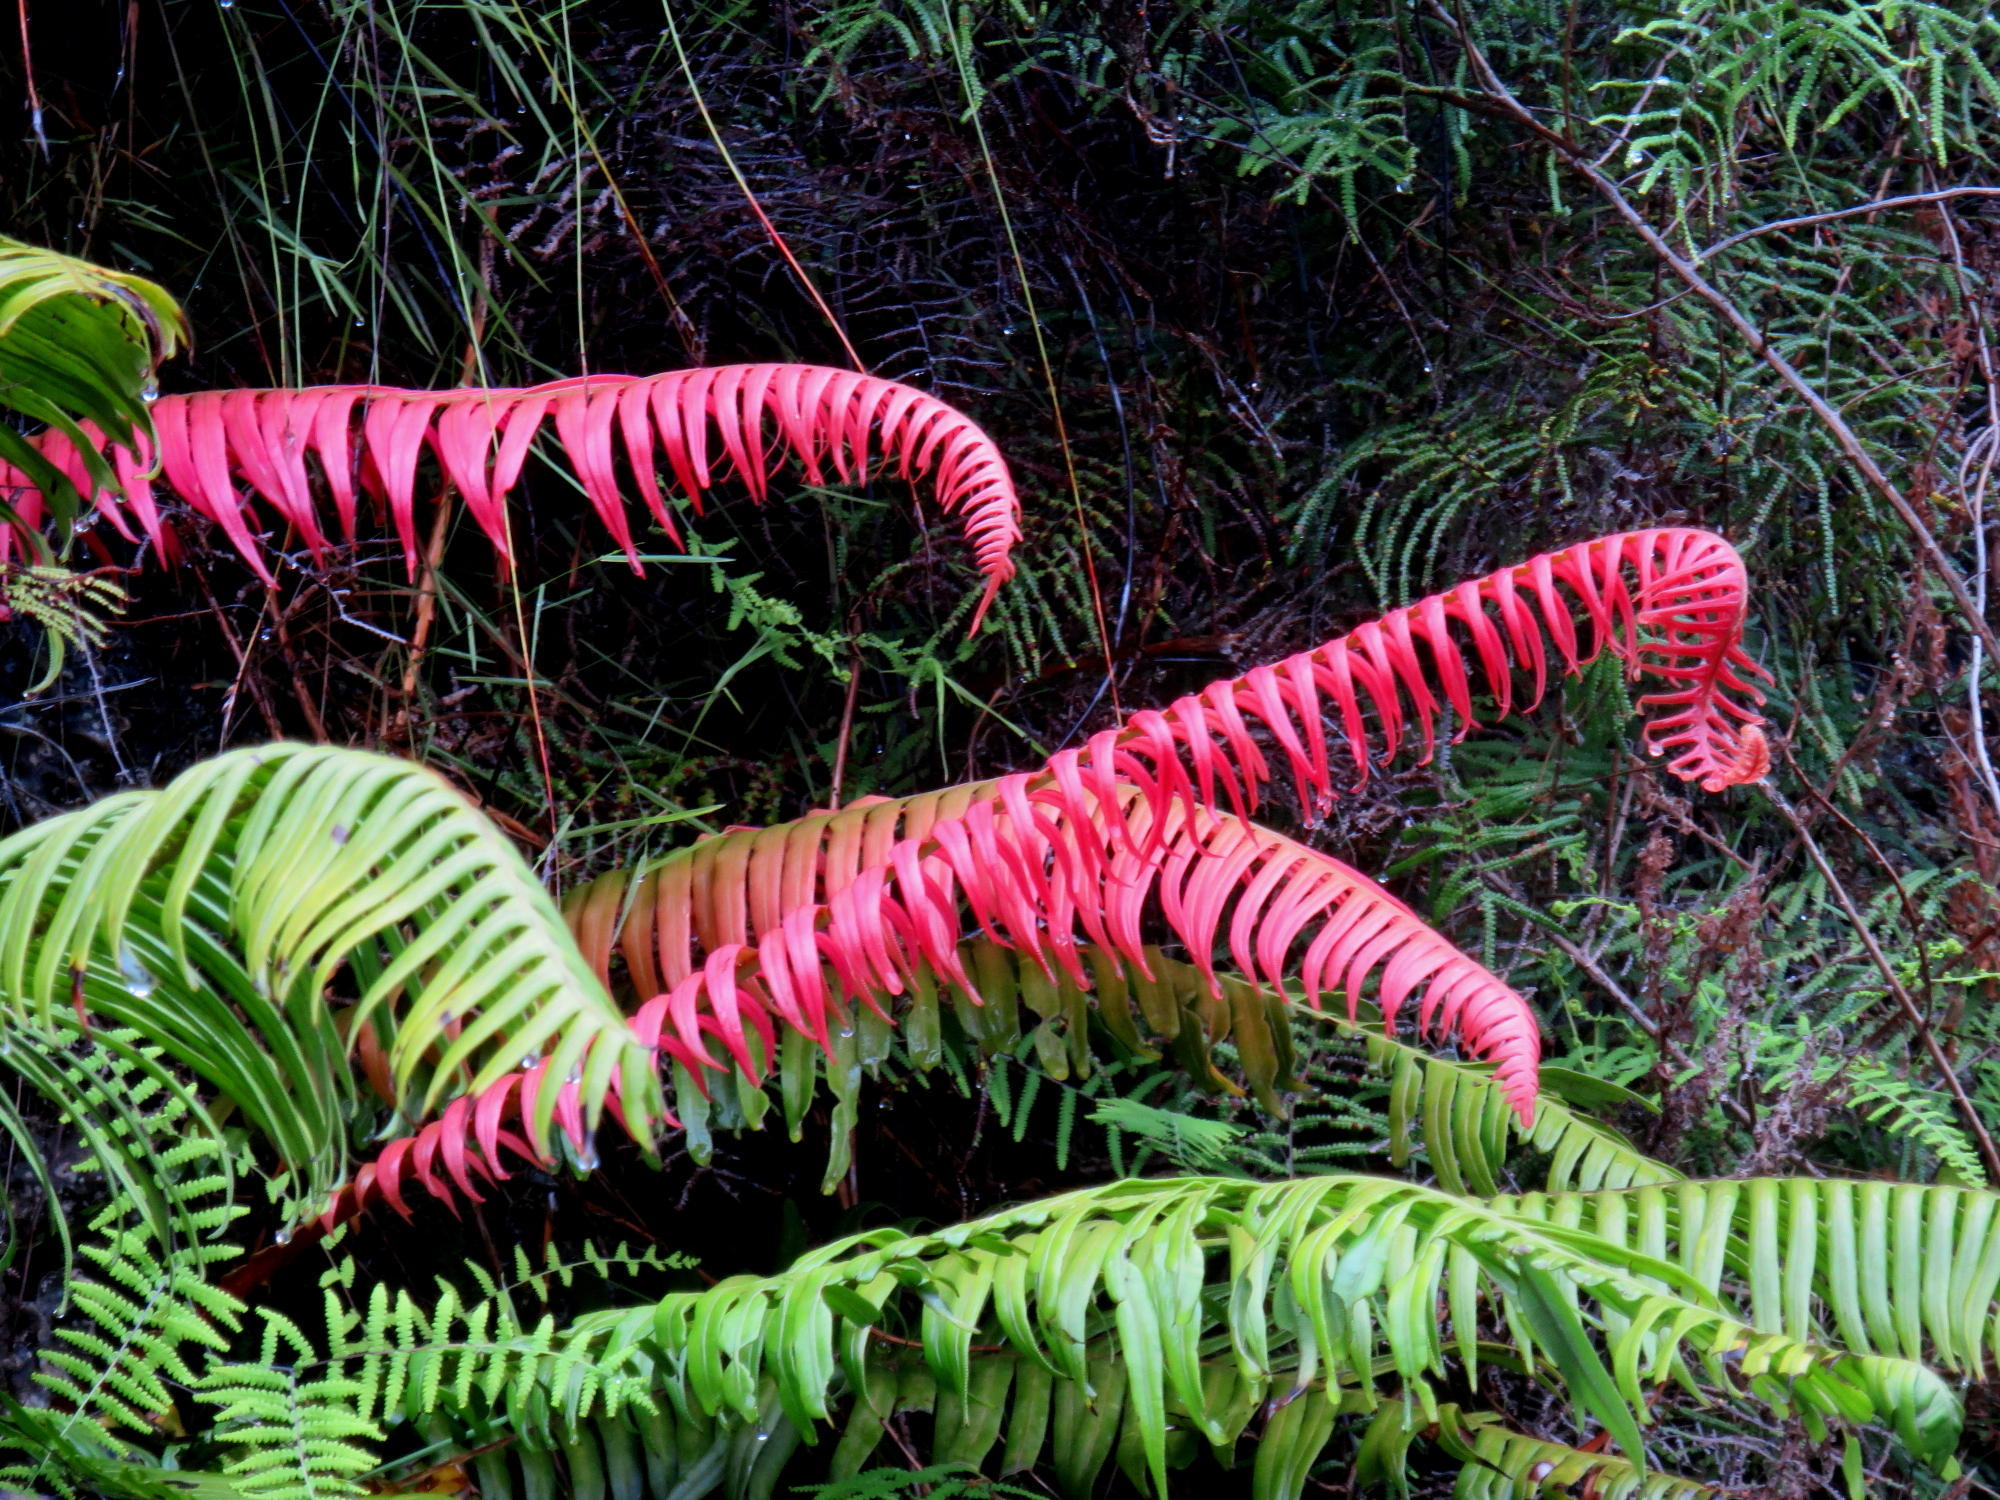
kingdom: Plantae
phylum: Tracheophyta
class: Polypodiopsida
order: Polypodiales
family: Blechnaceae
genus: Lomaridium
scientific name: Lomaridium attenuatum
